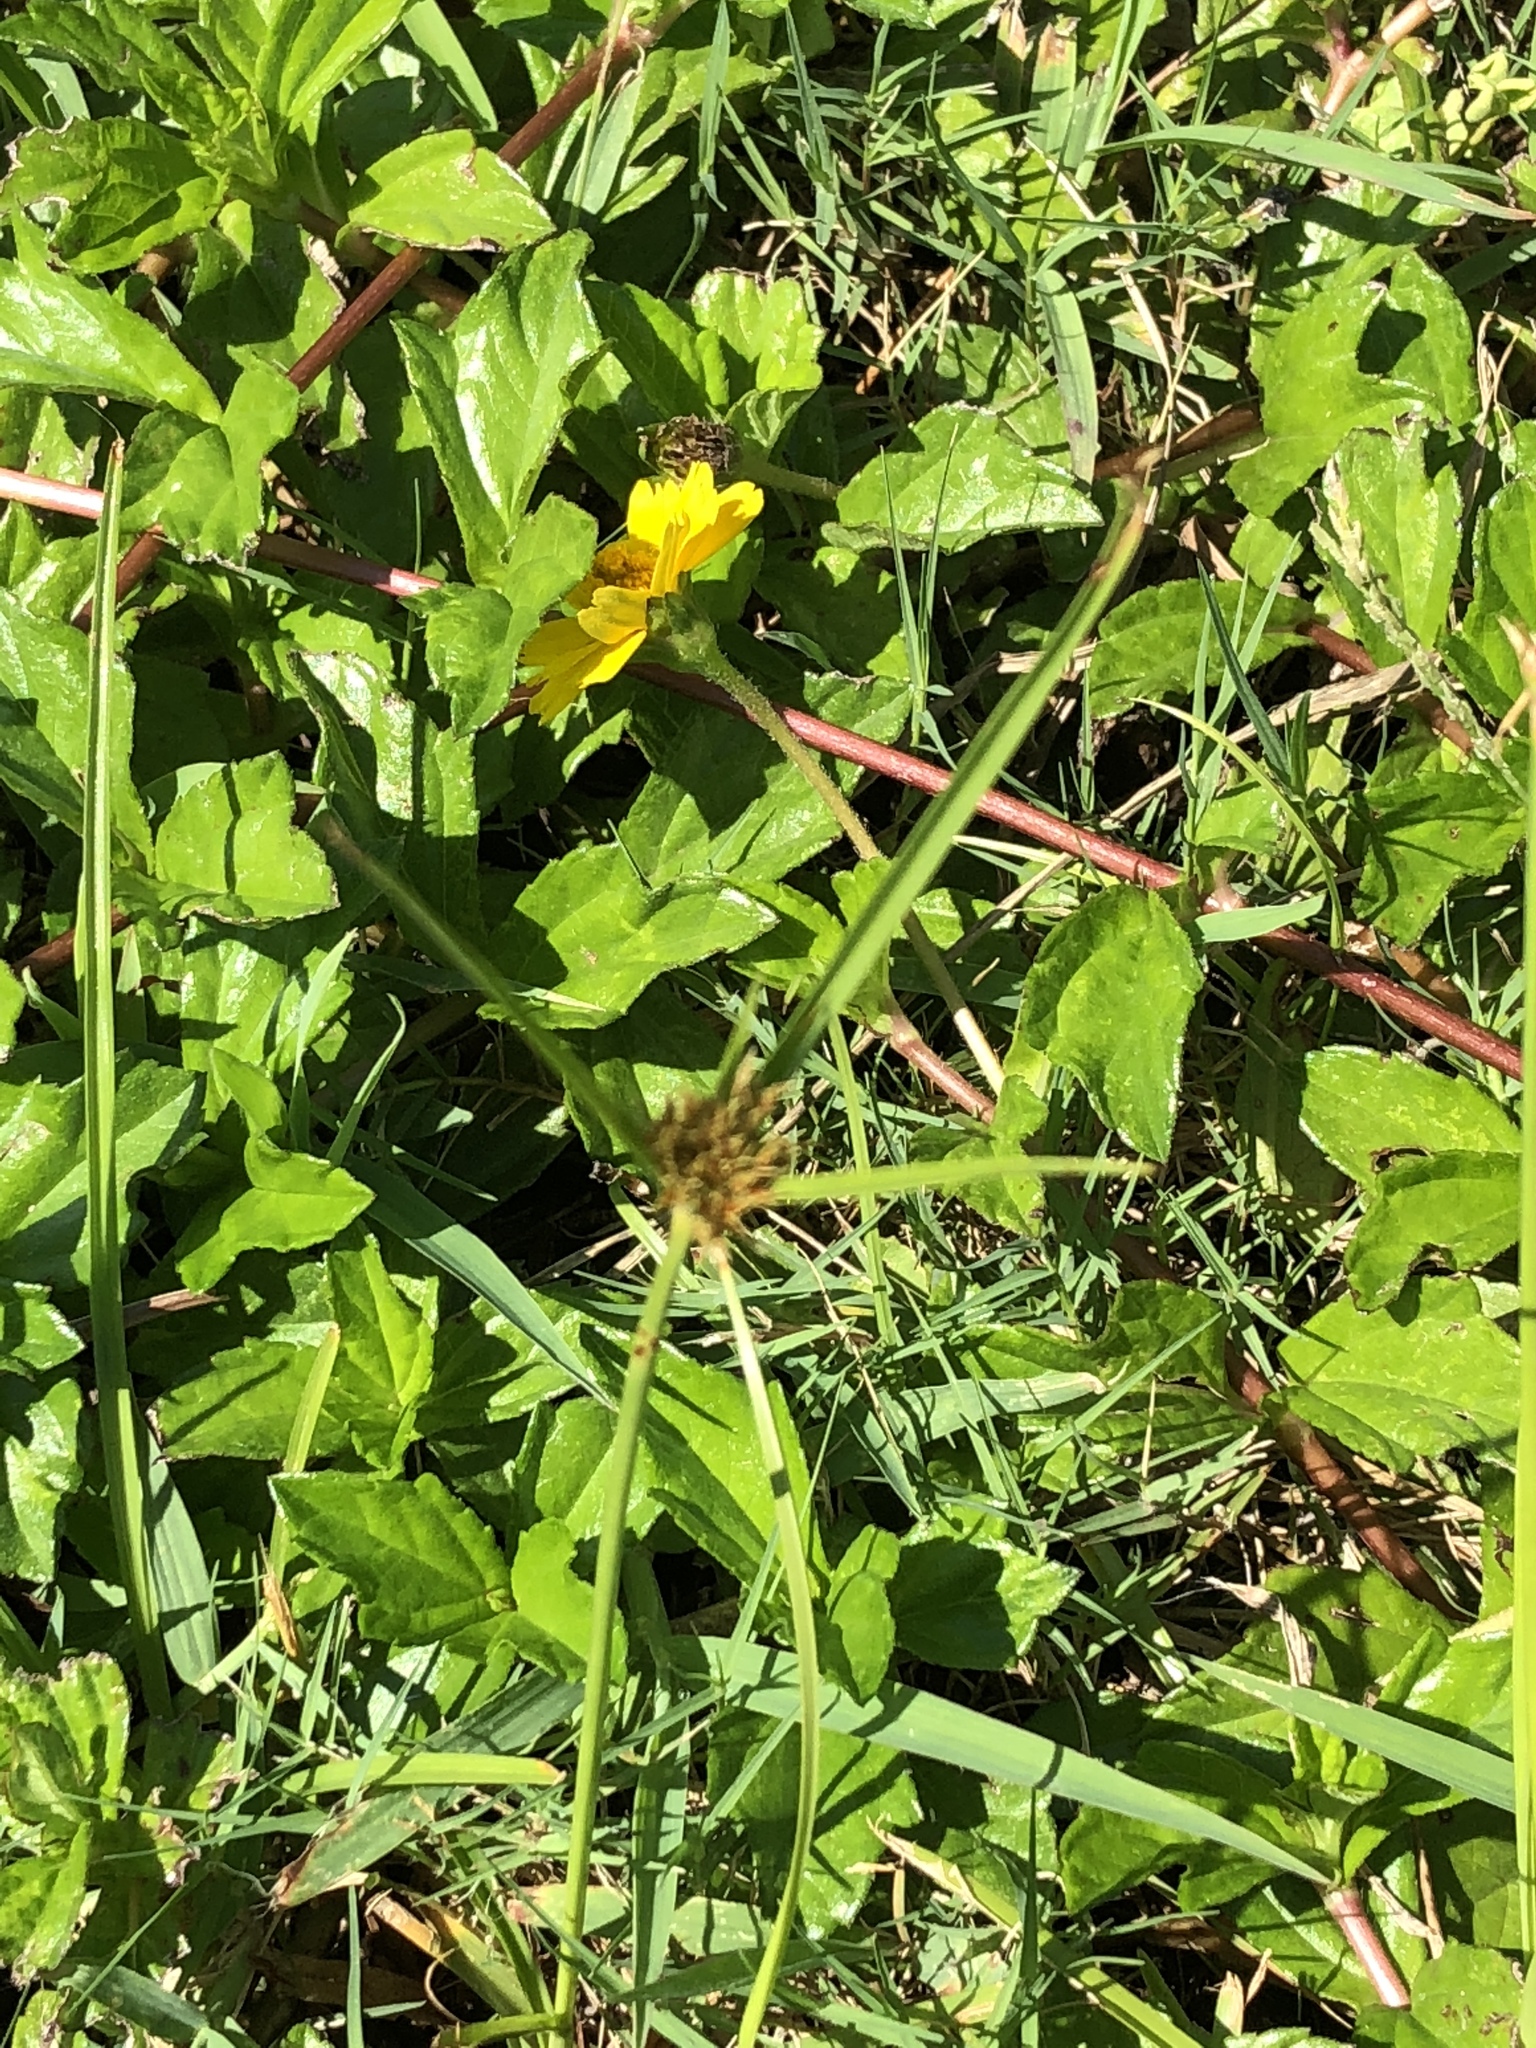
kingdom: Plantae
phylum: Tracheophyta
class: Liliopsida
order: Poales
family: Cyperaceae
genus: Cyperus
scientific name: Cyperus polystachyos
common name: Bunchy flat sedge
